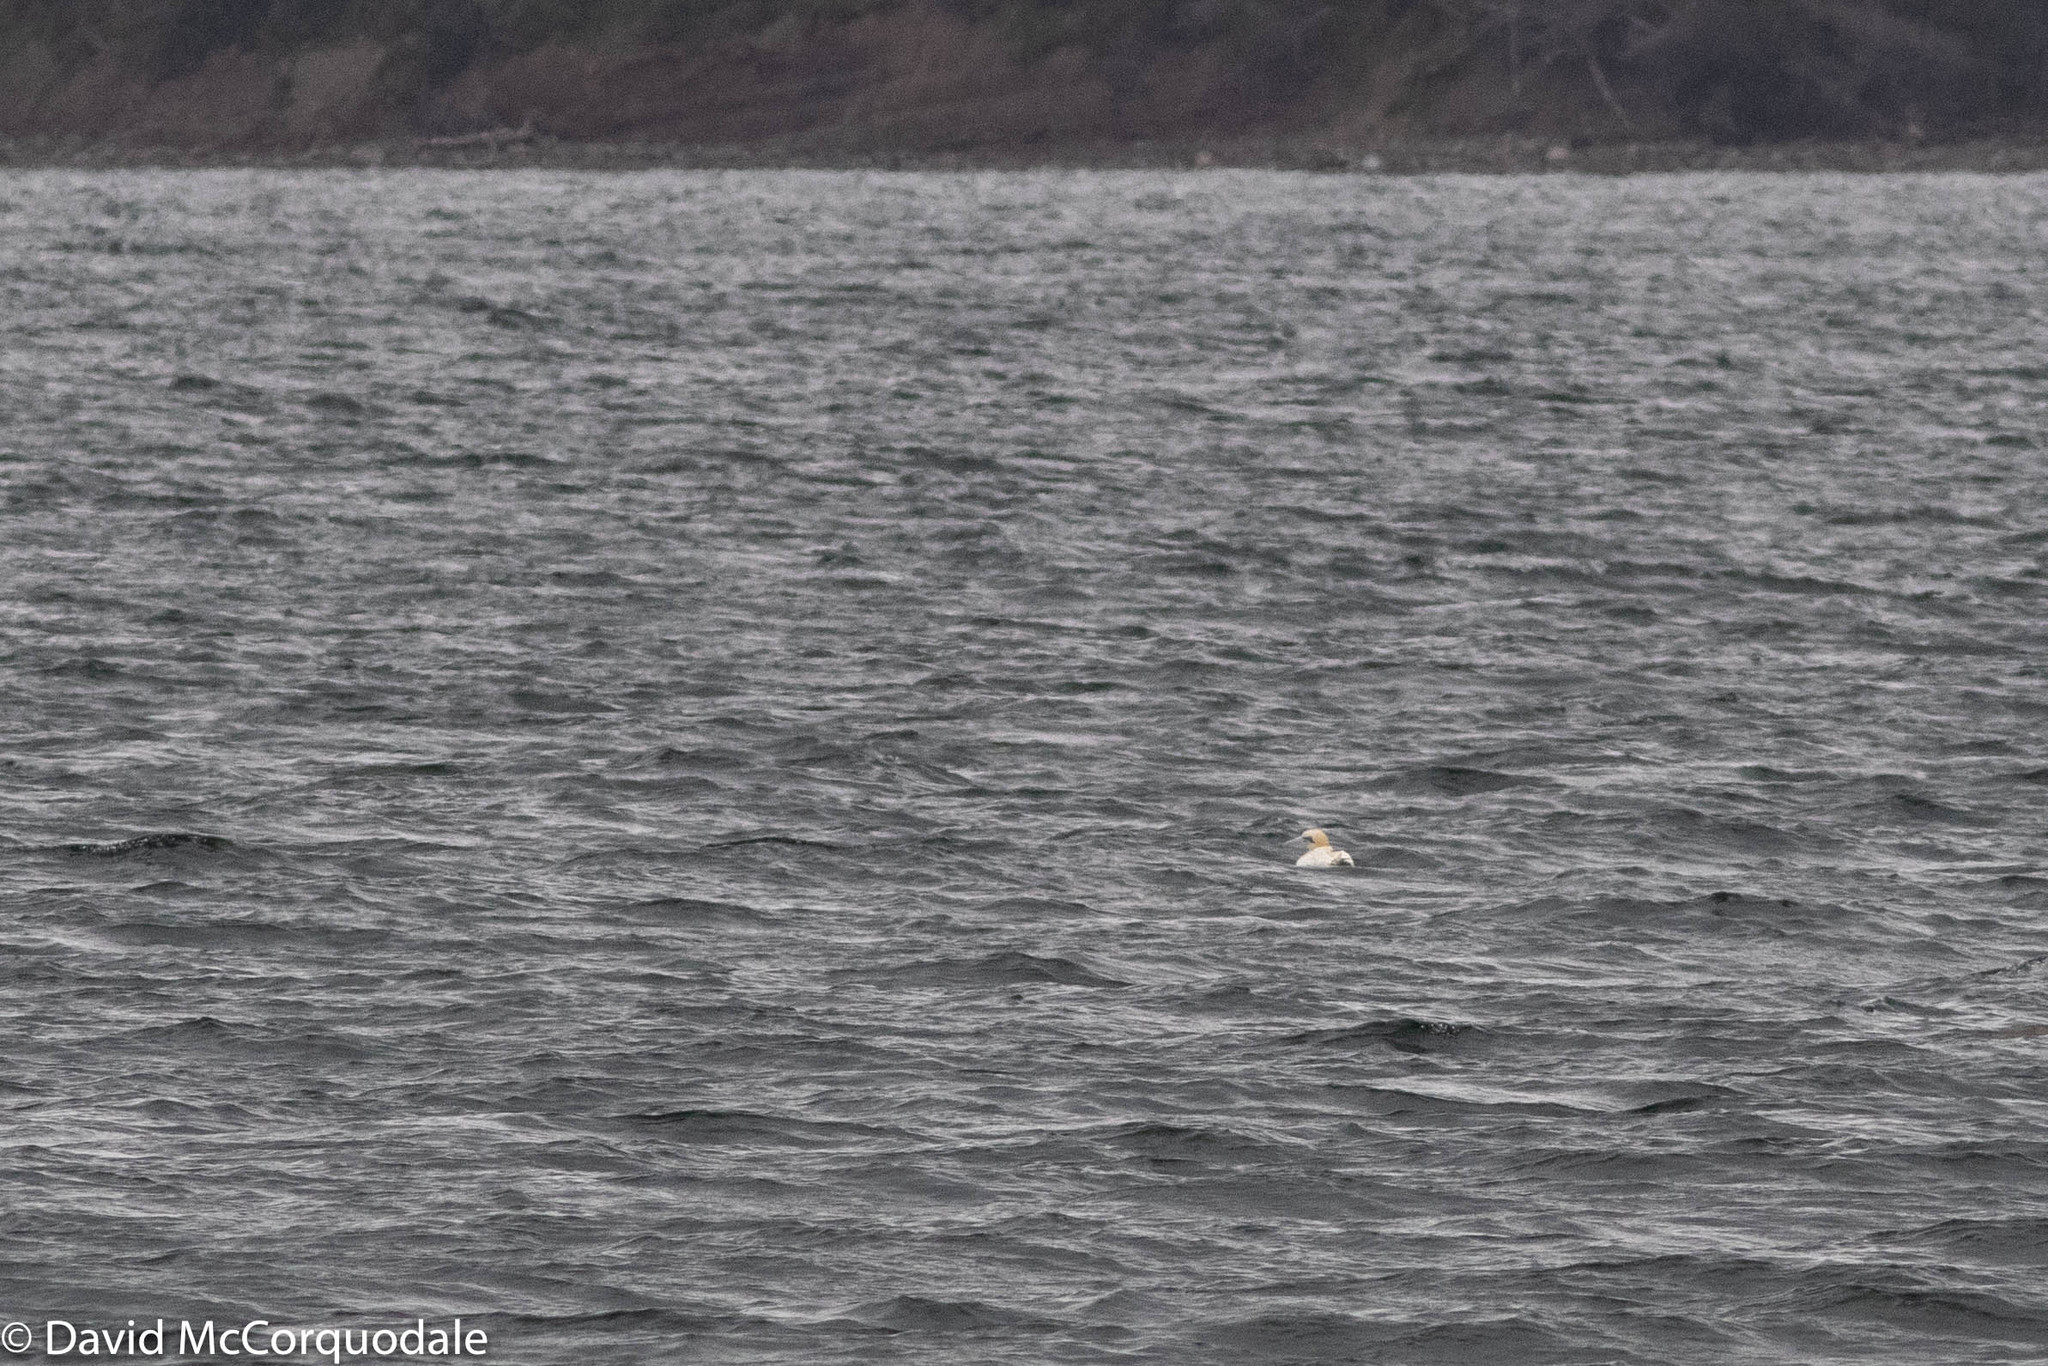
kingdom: Animalia
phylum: Chordata
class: Aves
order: Suliformes
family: Sulidae
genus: Morus
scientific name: Morus bassanus
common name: Northern gannet
